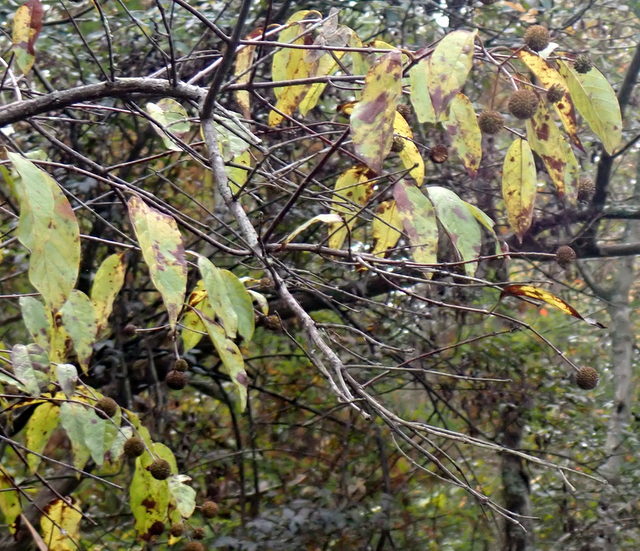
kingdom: Plantae
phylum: Tracheophyta
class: Magnoliopsida
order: Gentianales
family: Rubiaceae
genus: Cephalanthus
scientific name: Cephalanthus occidentalis
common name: Button-willow
